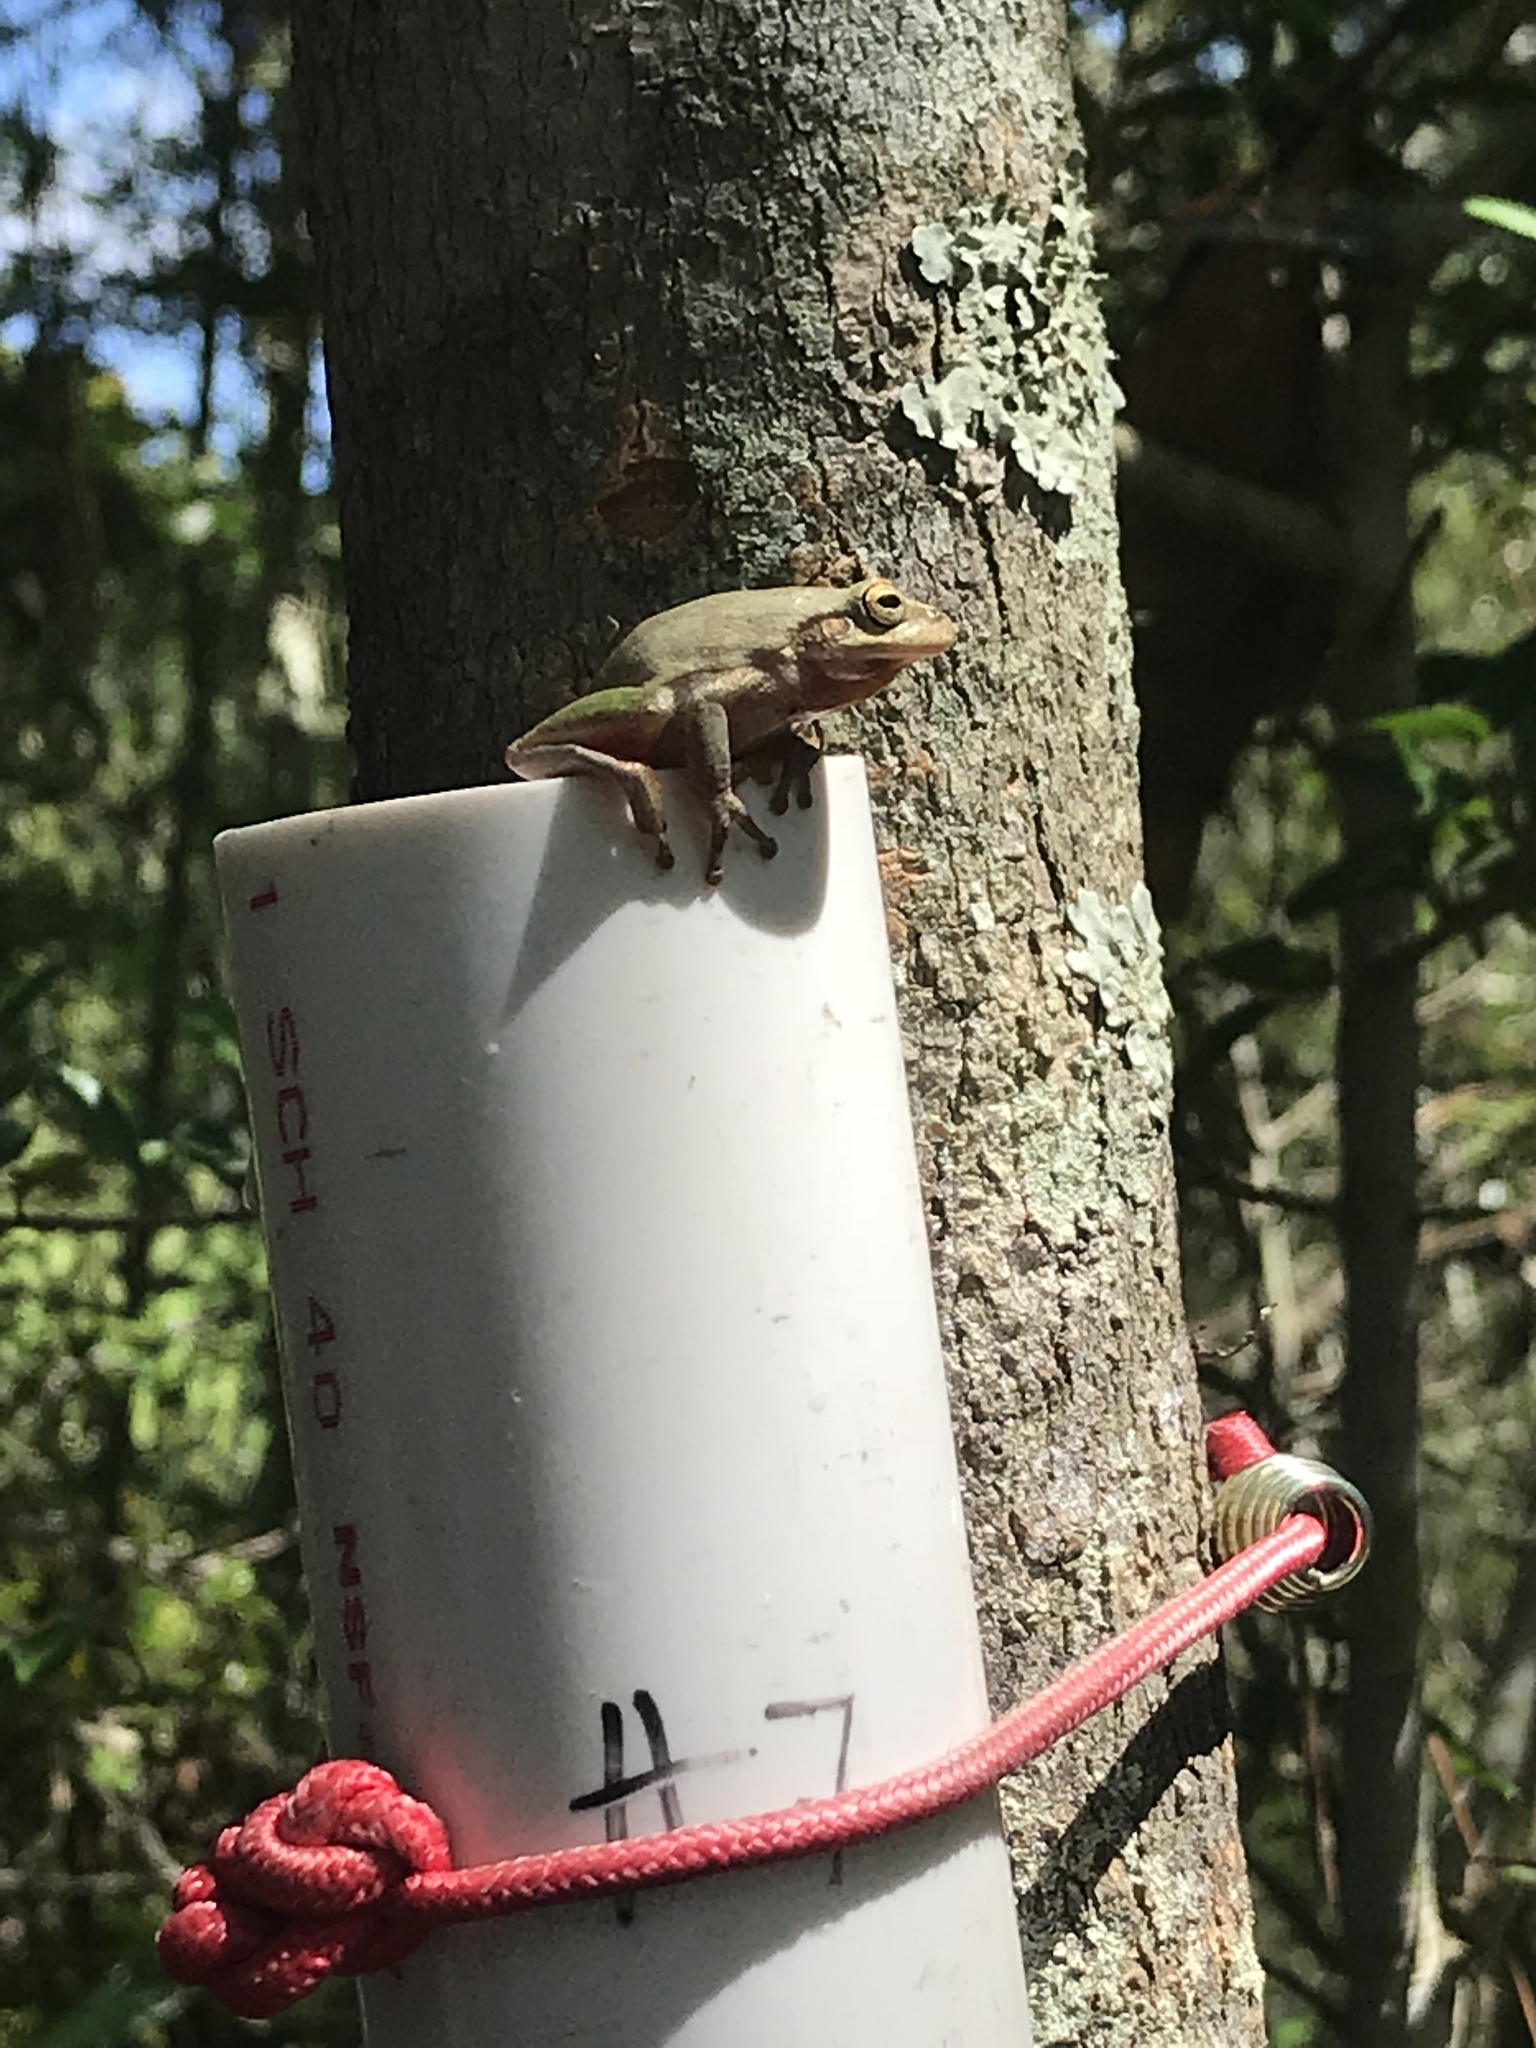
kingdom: Animalia
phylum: Chordata
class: Amphibia
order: Anura
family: Hylidae
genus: Dryophytes
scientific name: Dryophytes squirellus
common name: Squirrel treefrog
